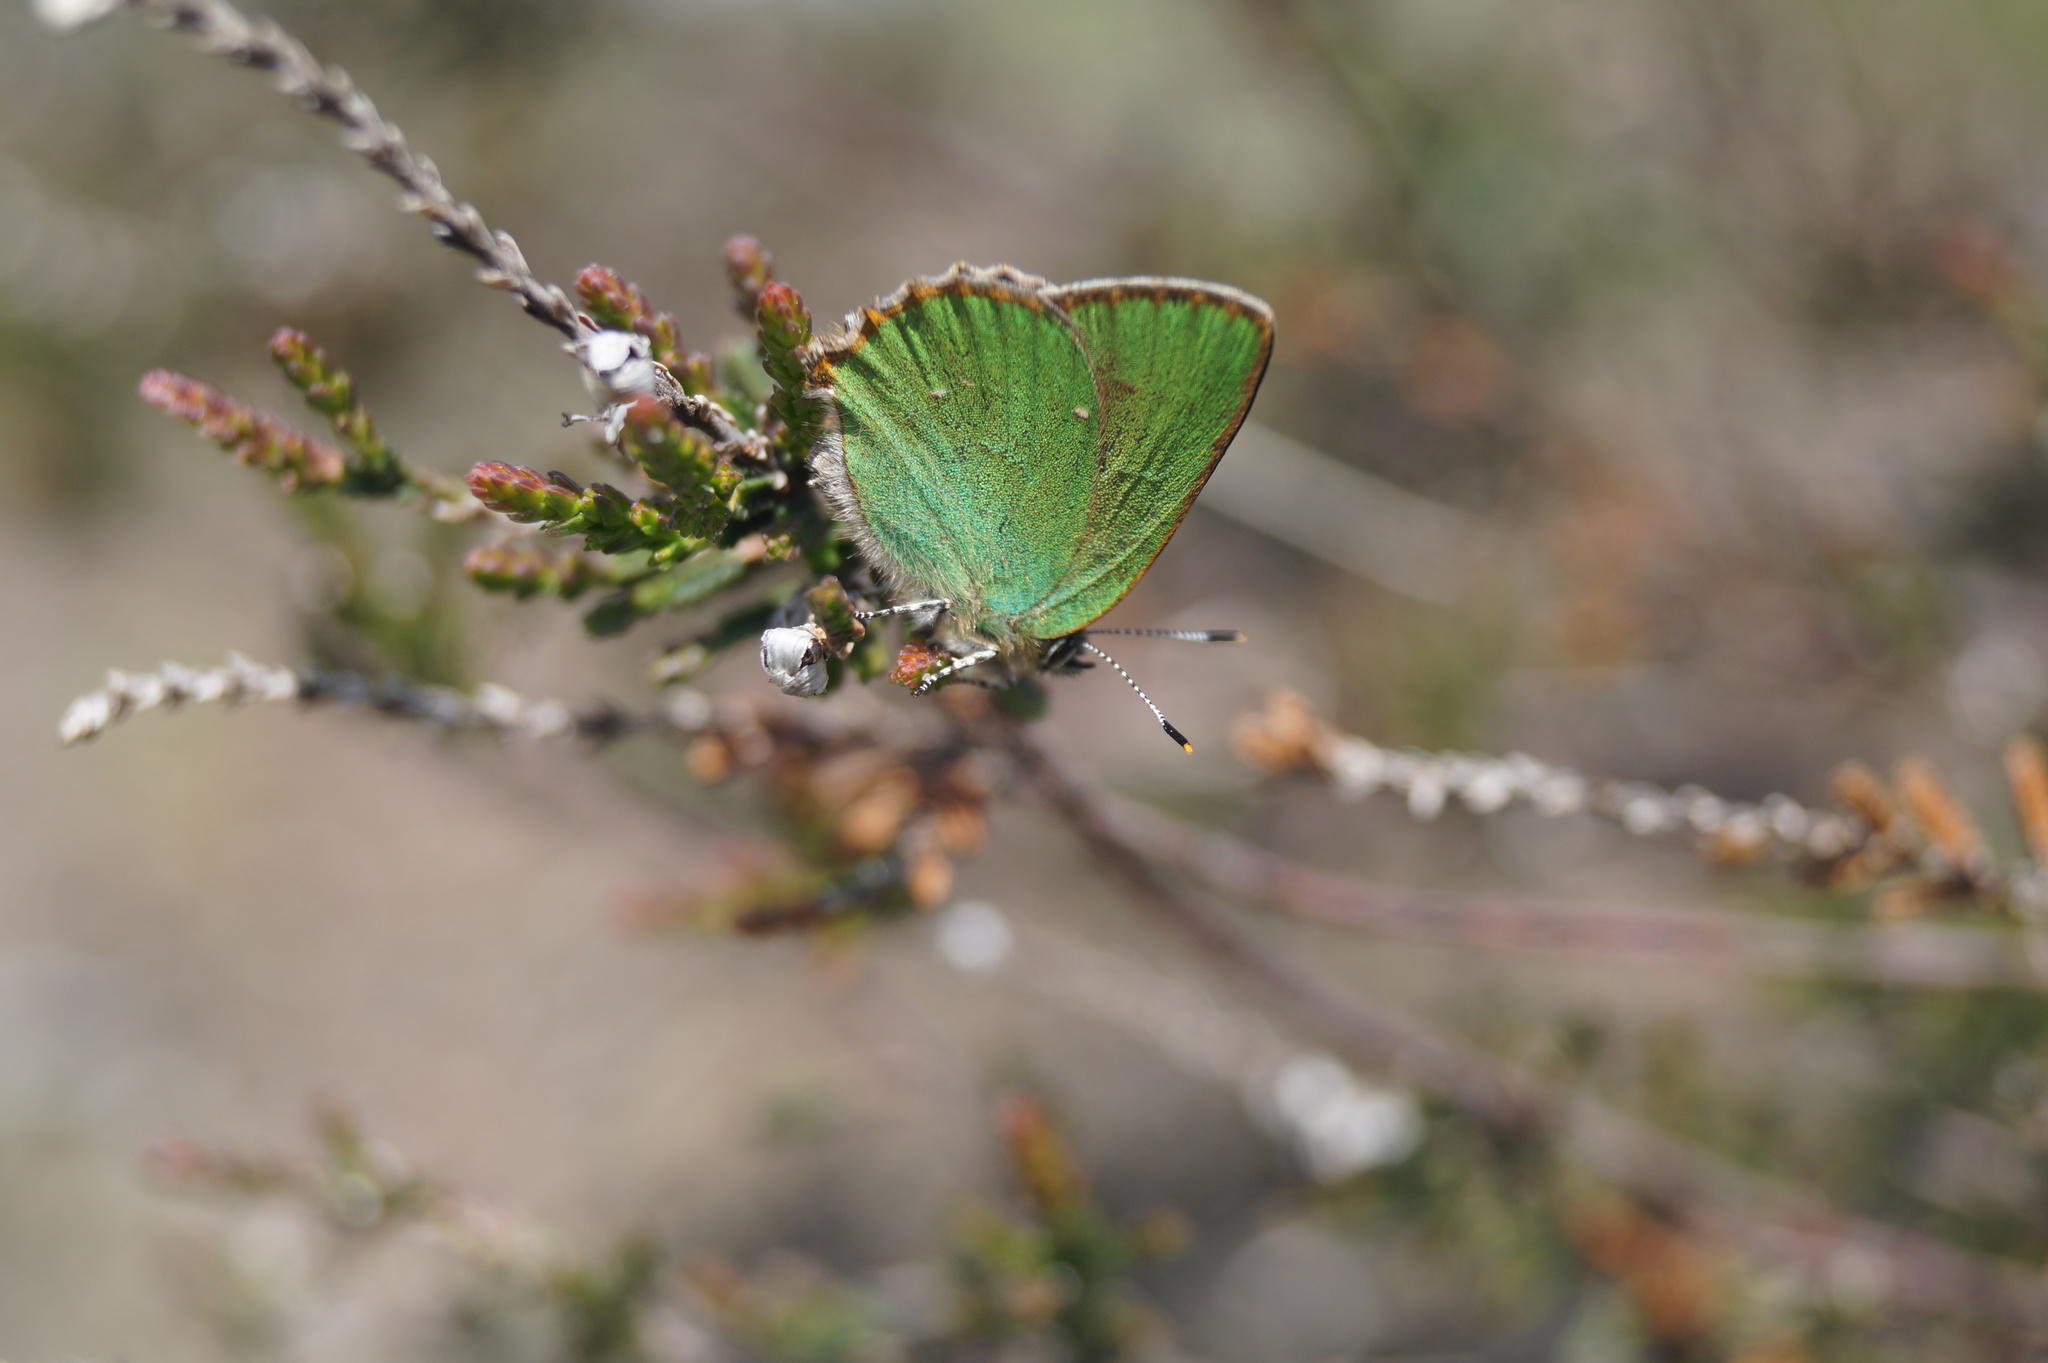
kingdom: Animalia
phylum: Arthropoda
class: Insecta
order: Lepidoptera
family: Lycaenidae
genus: Callophrys
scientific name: Callophrys rubi
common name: Green hairstreak
